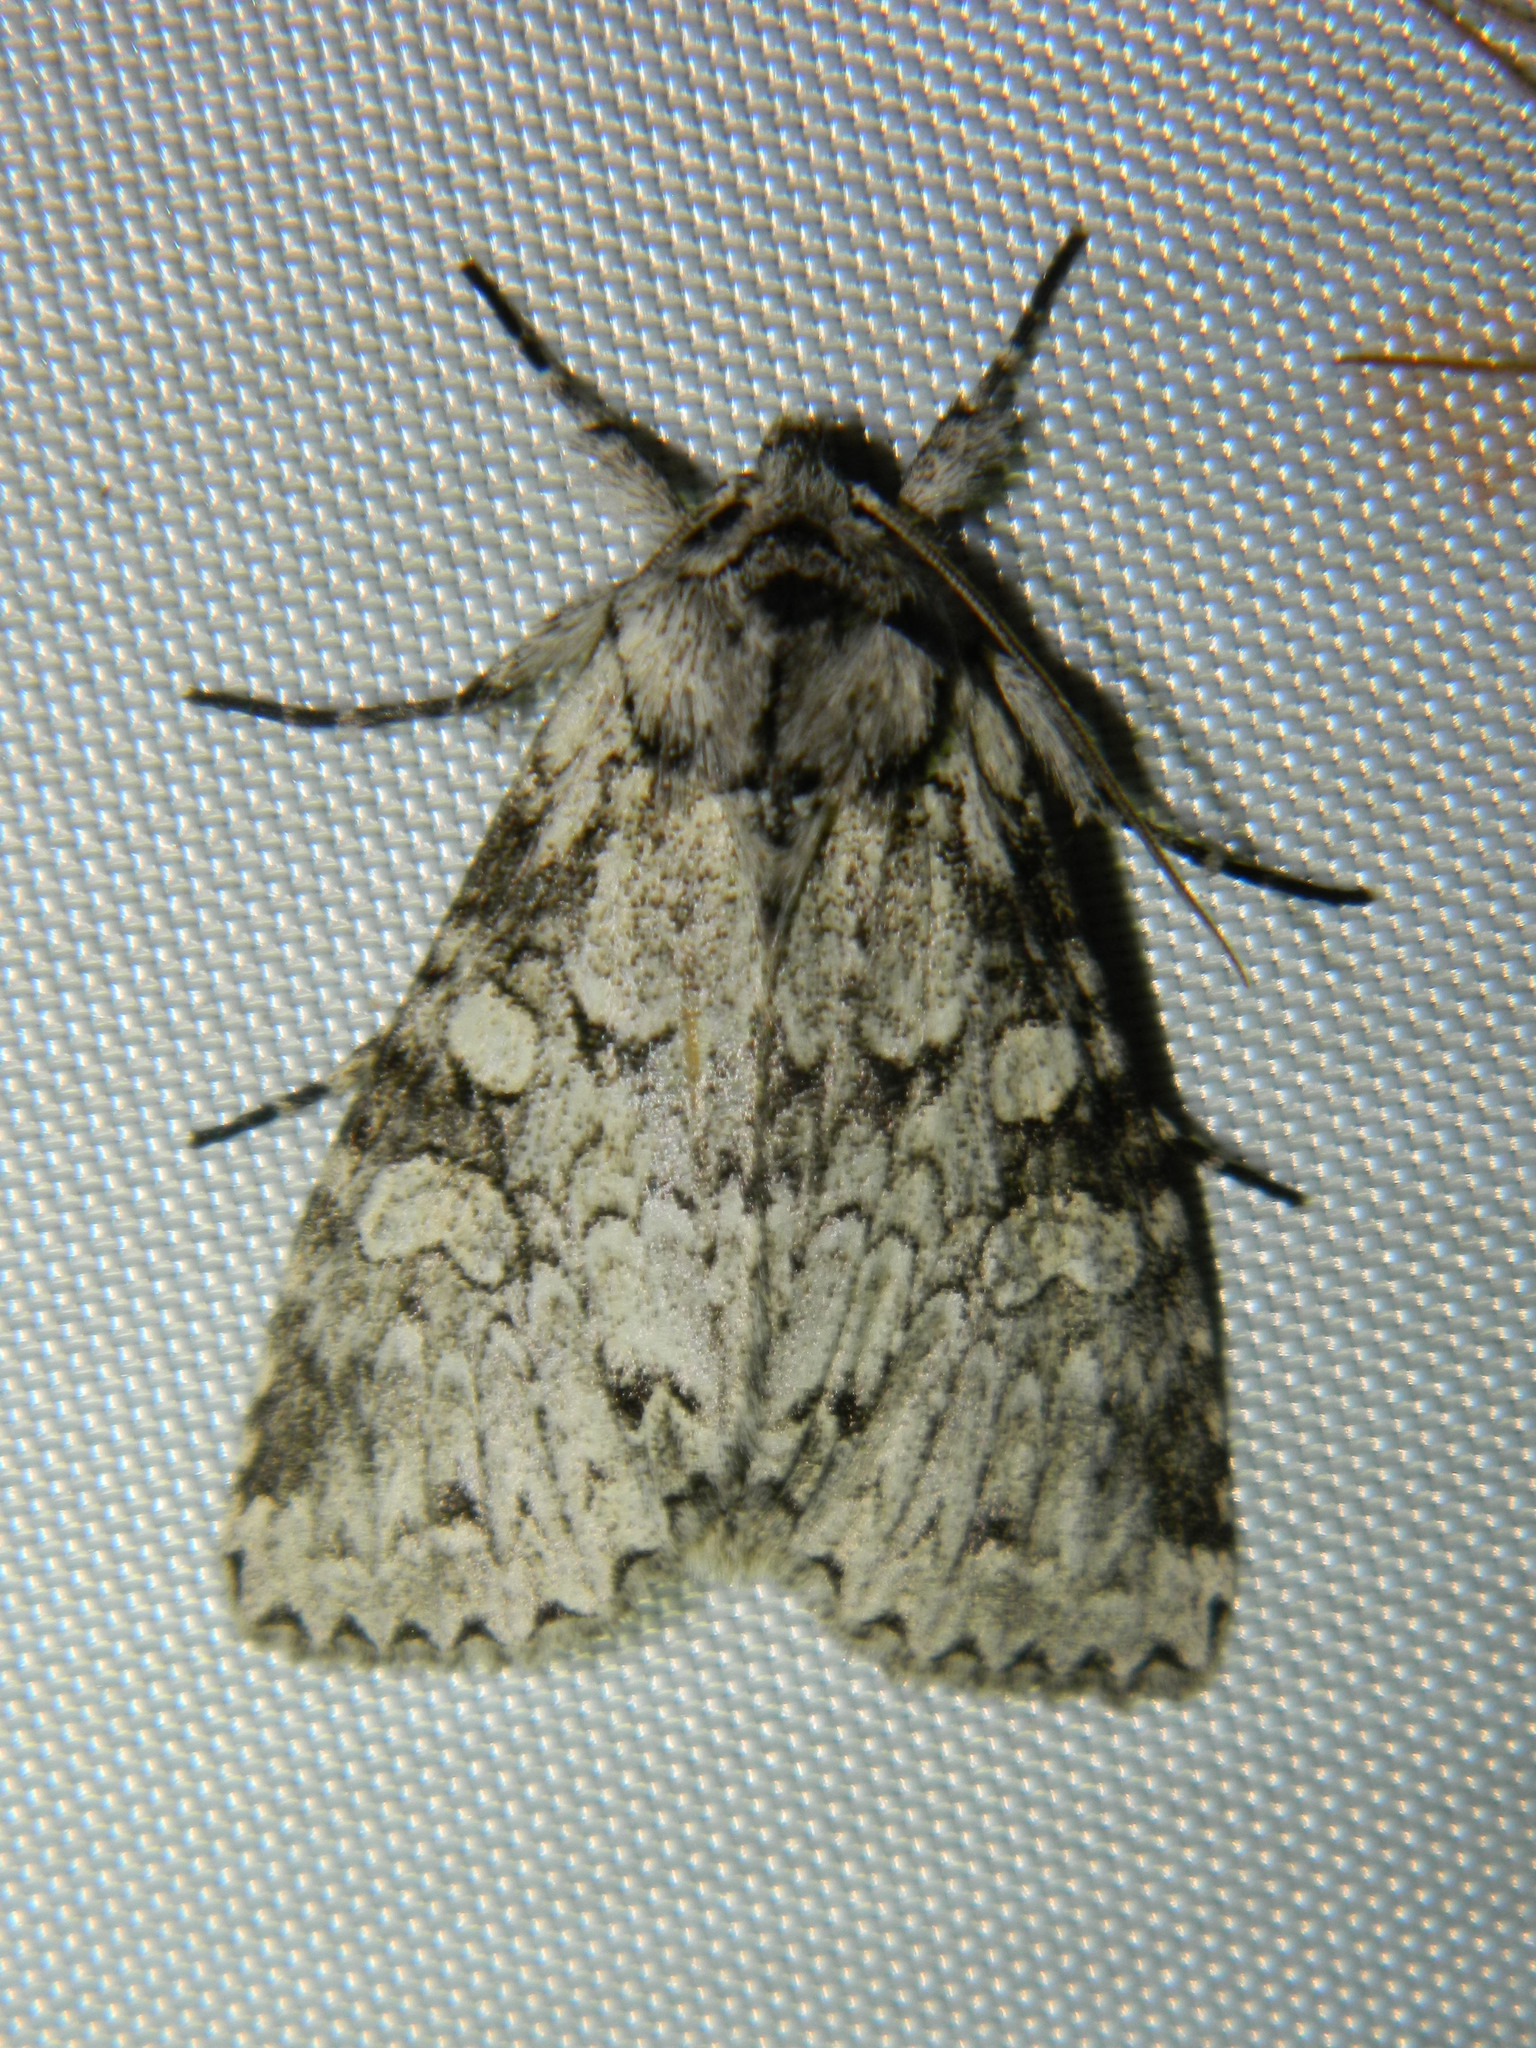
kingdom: Animalia
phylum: Arthropoda
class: Insecta
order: Lepidoptera
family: Noctuidae
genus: Polia
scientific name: Polia nimbosa
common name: Stormy arches
